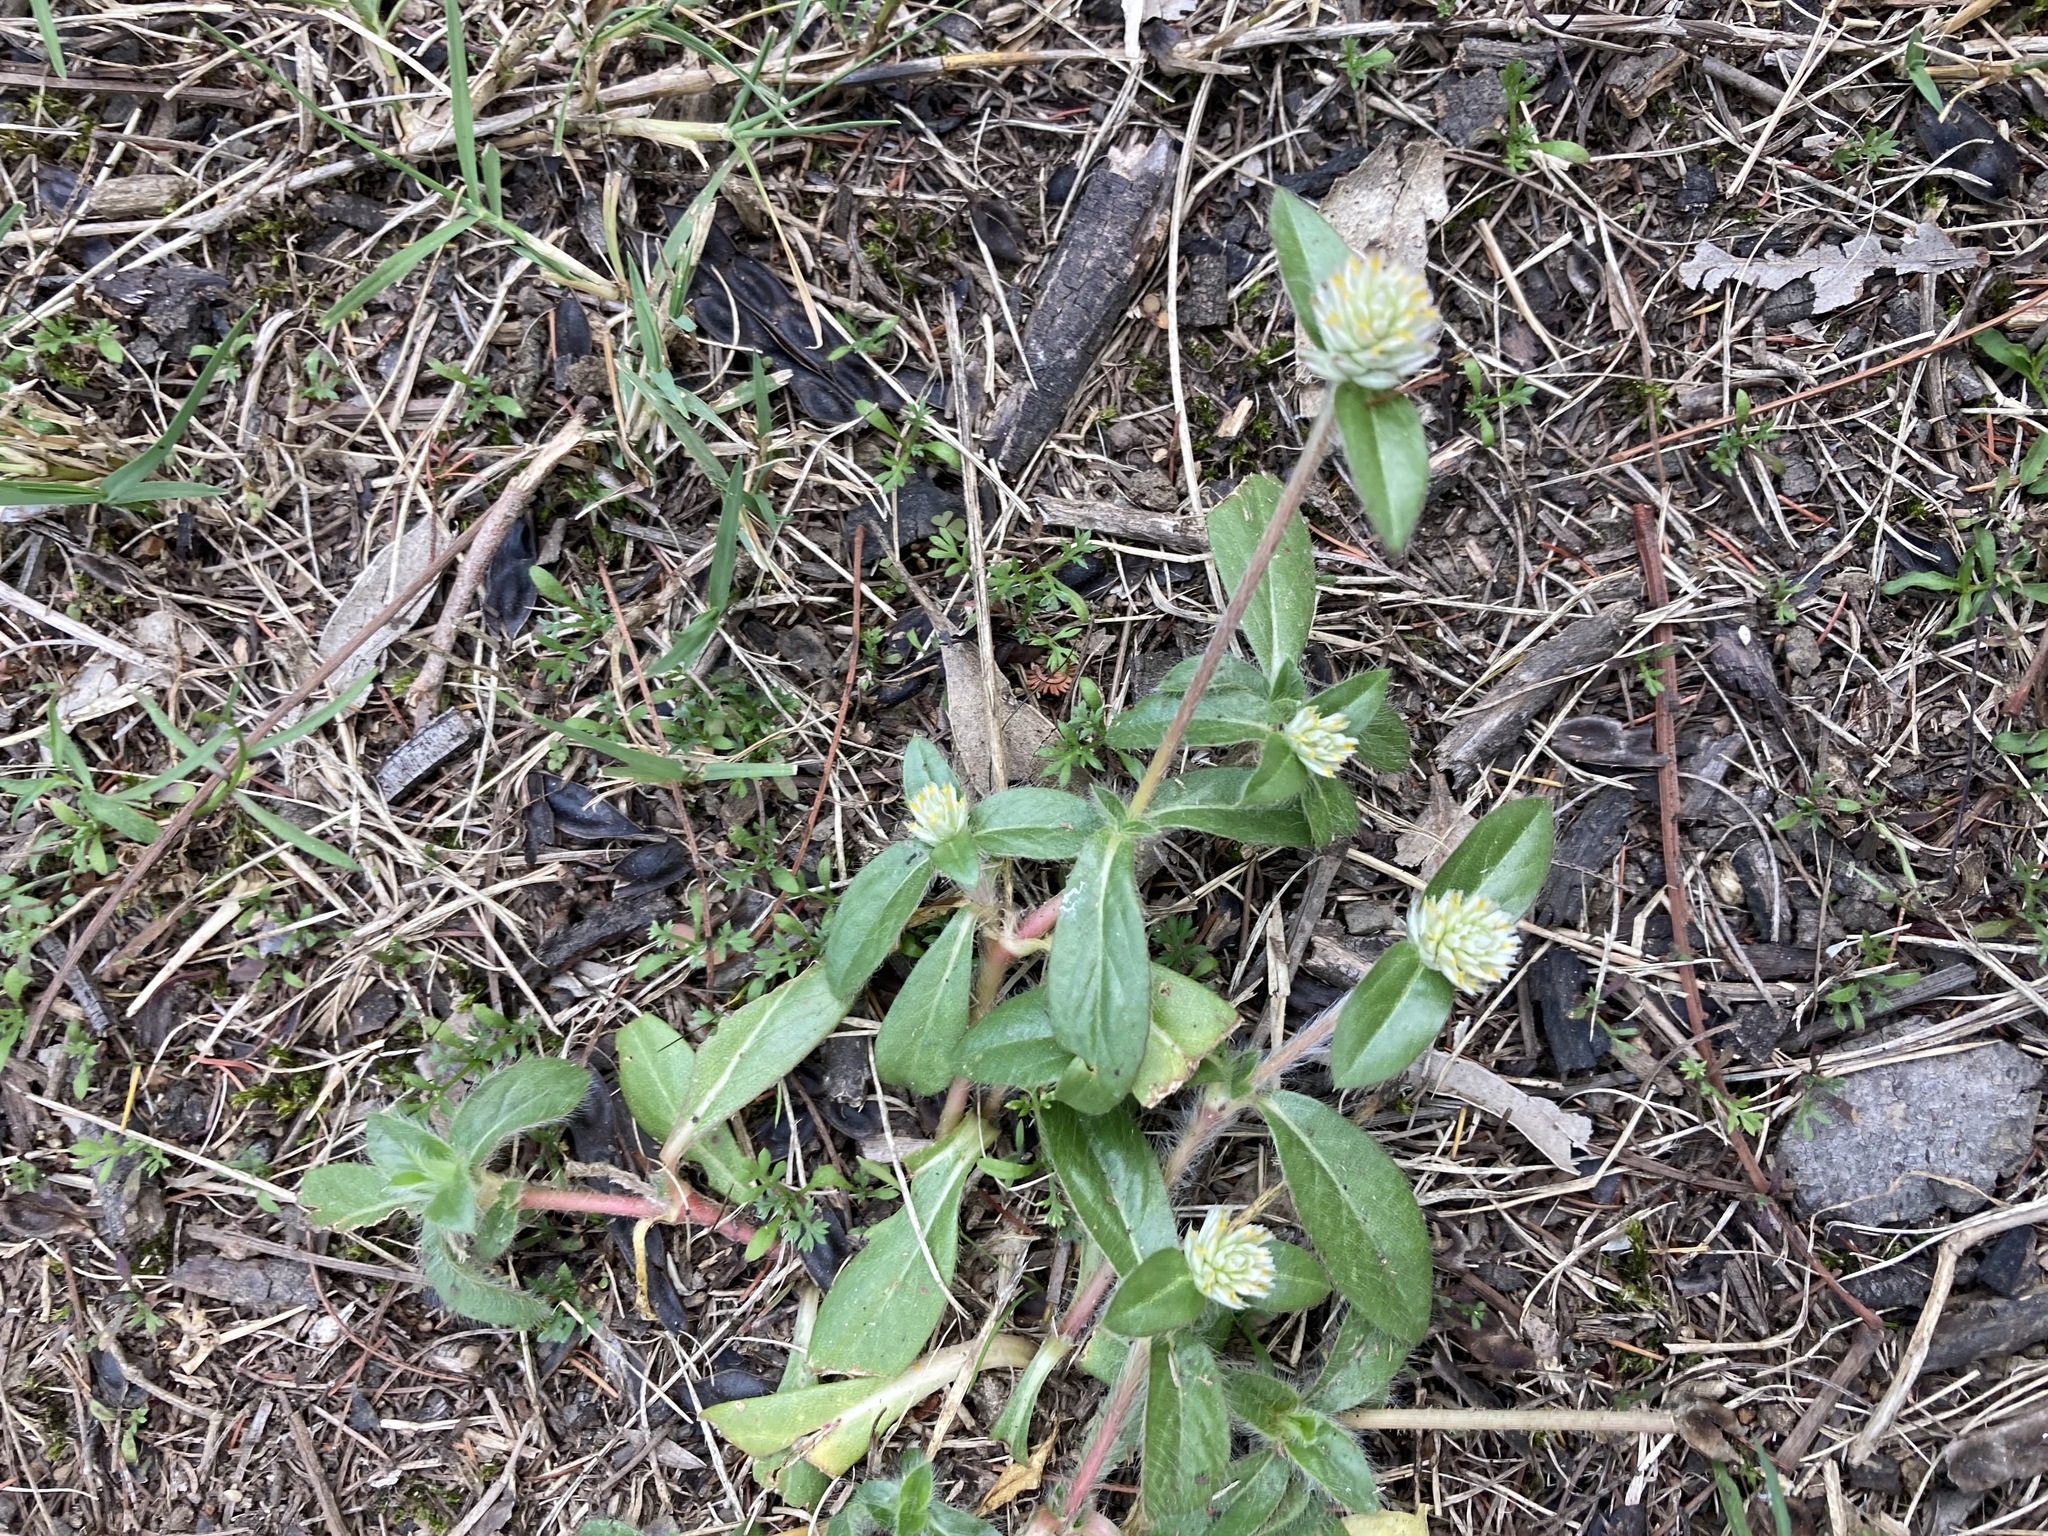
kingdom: Plantae
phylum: Tracheophyta
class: Magnoliopsida
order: Caryophyllales
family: Amaranthaceae
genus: Gomphrena
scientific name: Gomphrena celosioides
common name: Gomphrena-weed
